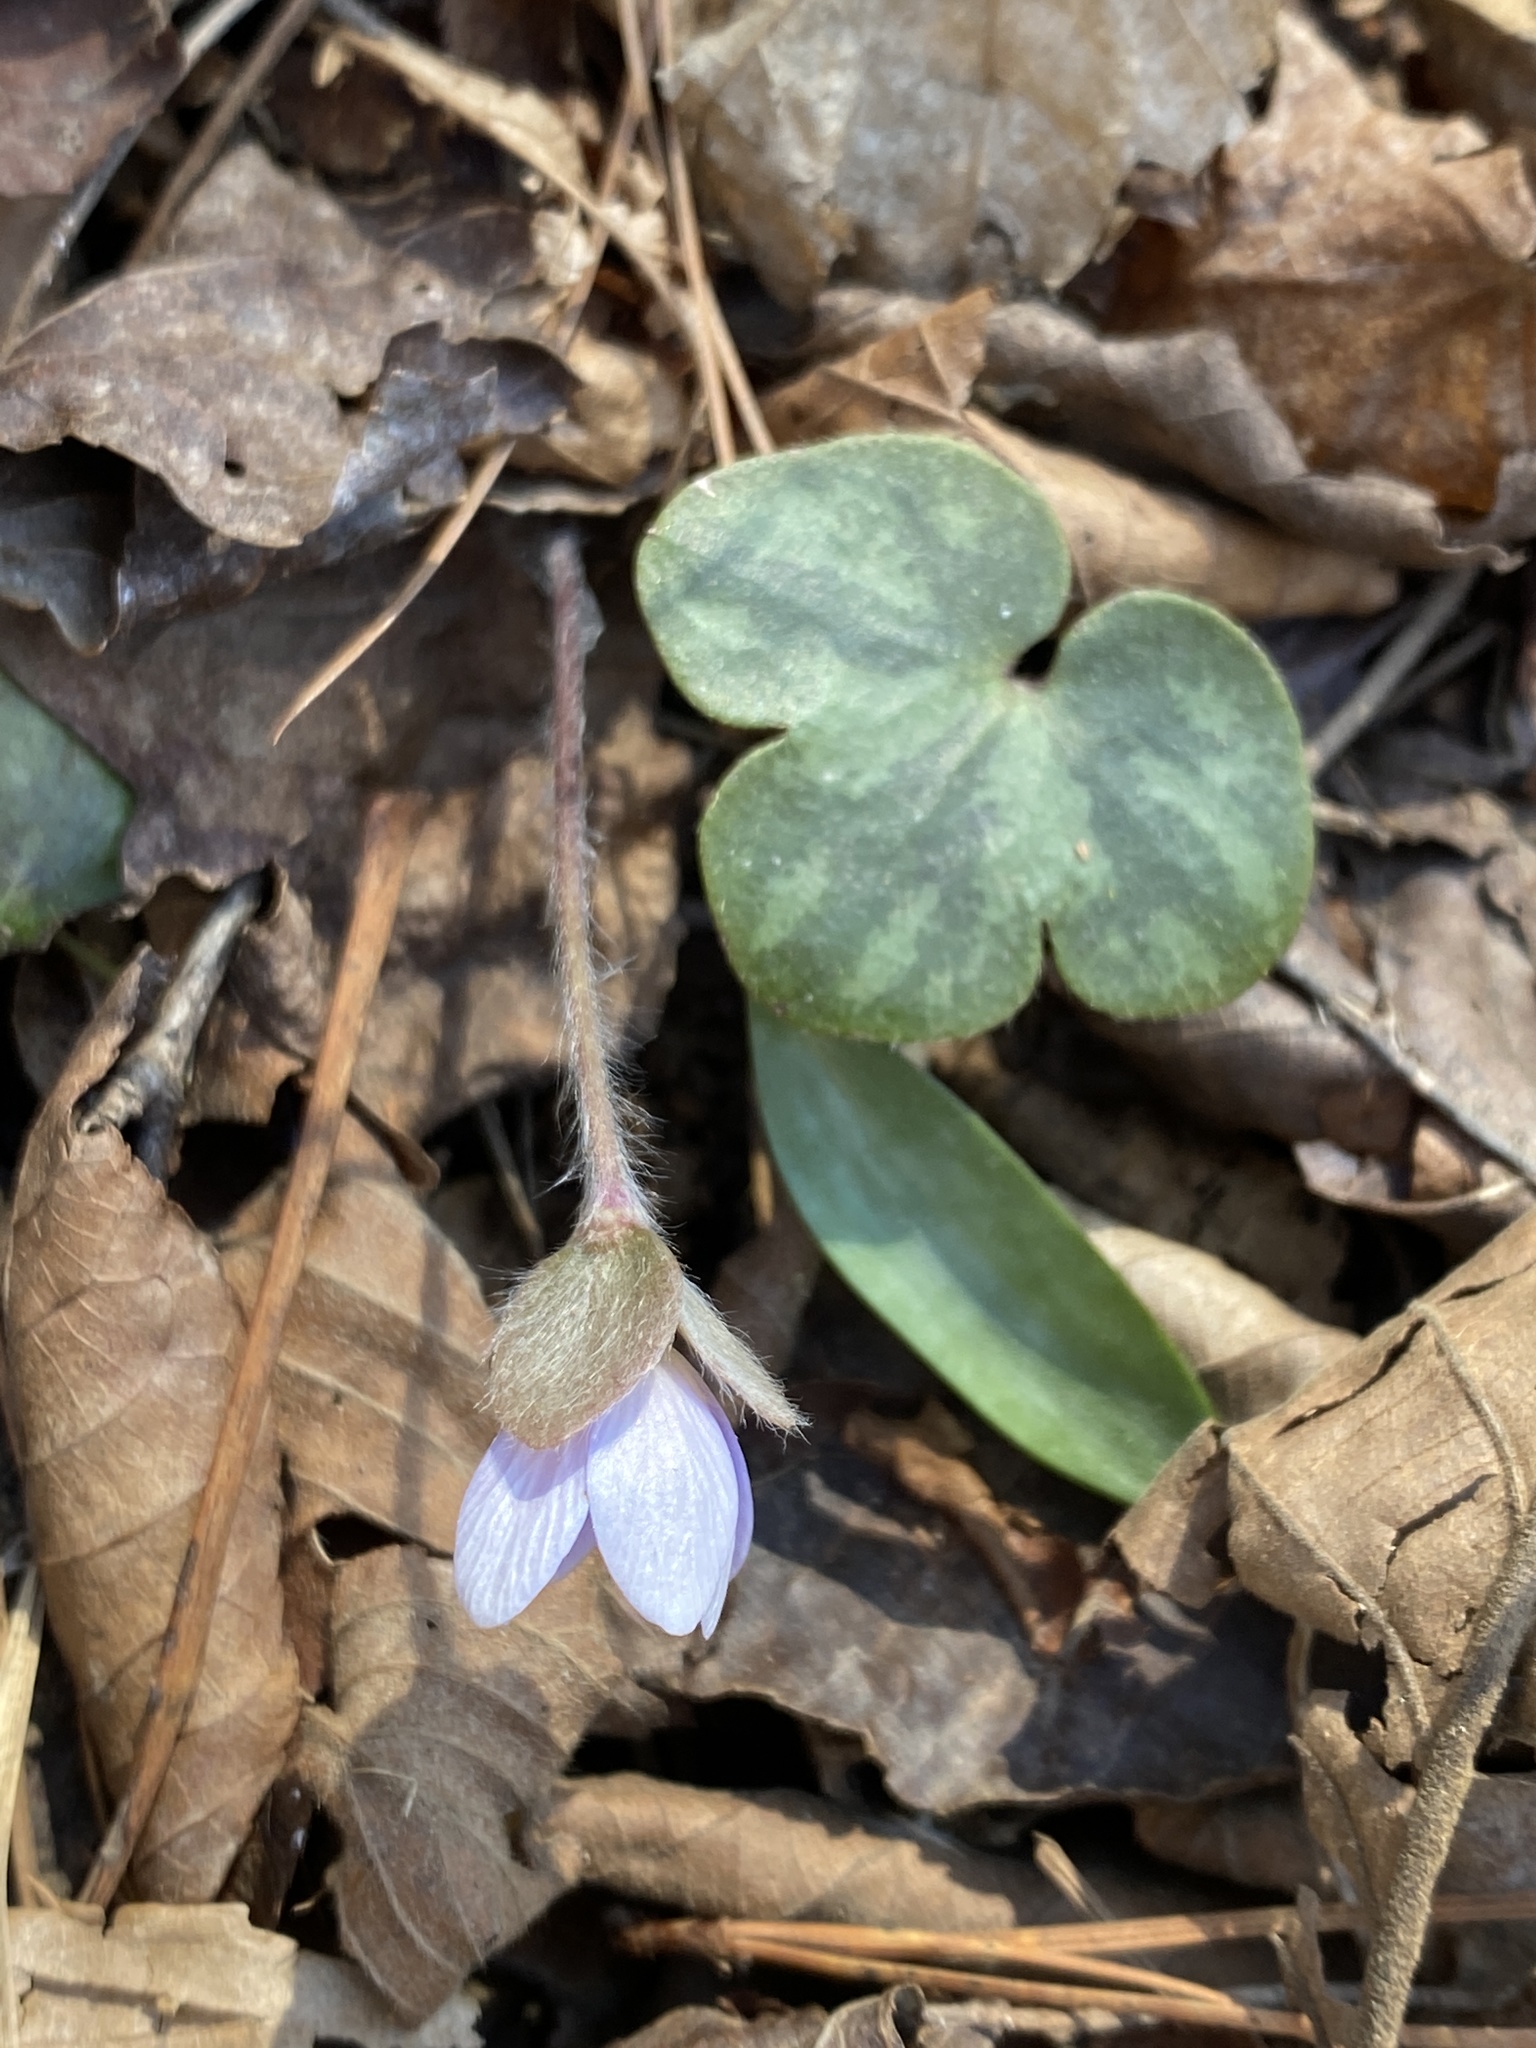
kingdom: Plantae
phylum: Tracheophyta
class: Magnoliopsida
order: Ranunculales
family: Ranunculaceae
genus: Hepatica
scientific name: Hepatica americana
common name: American hepatica
